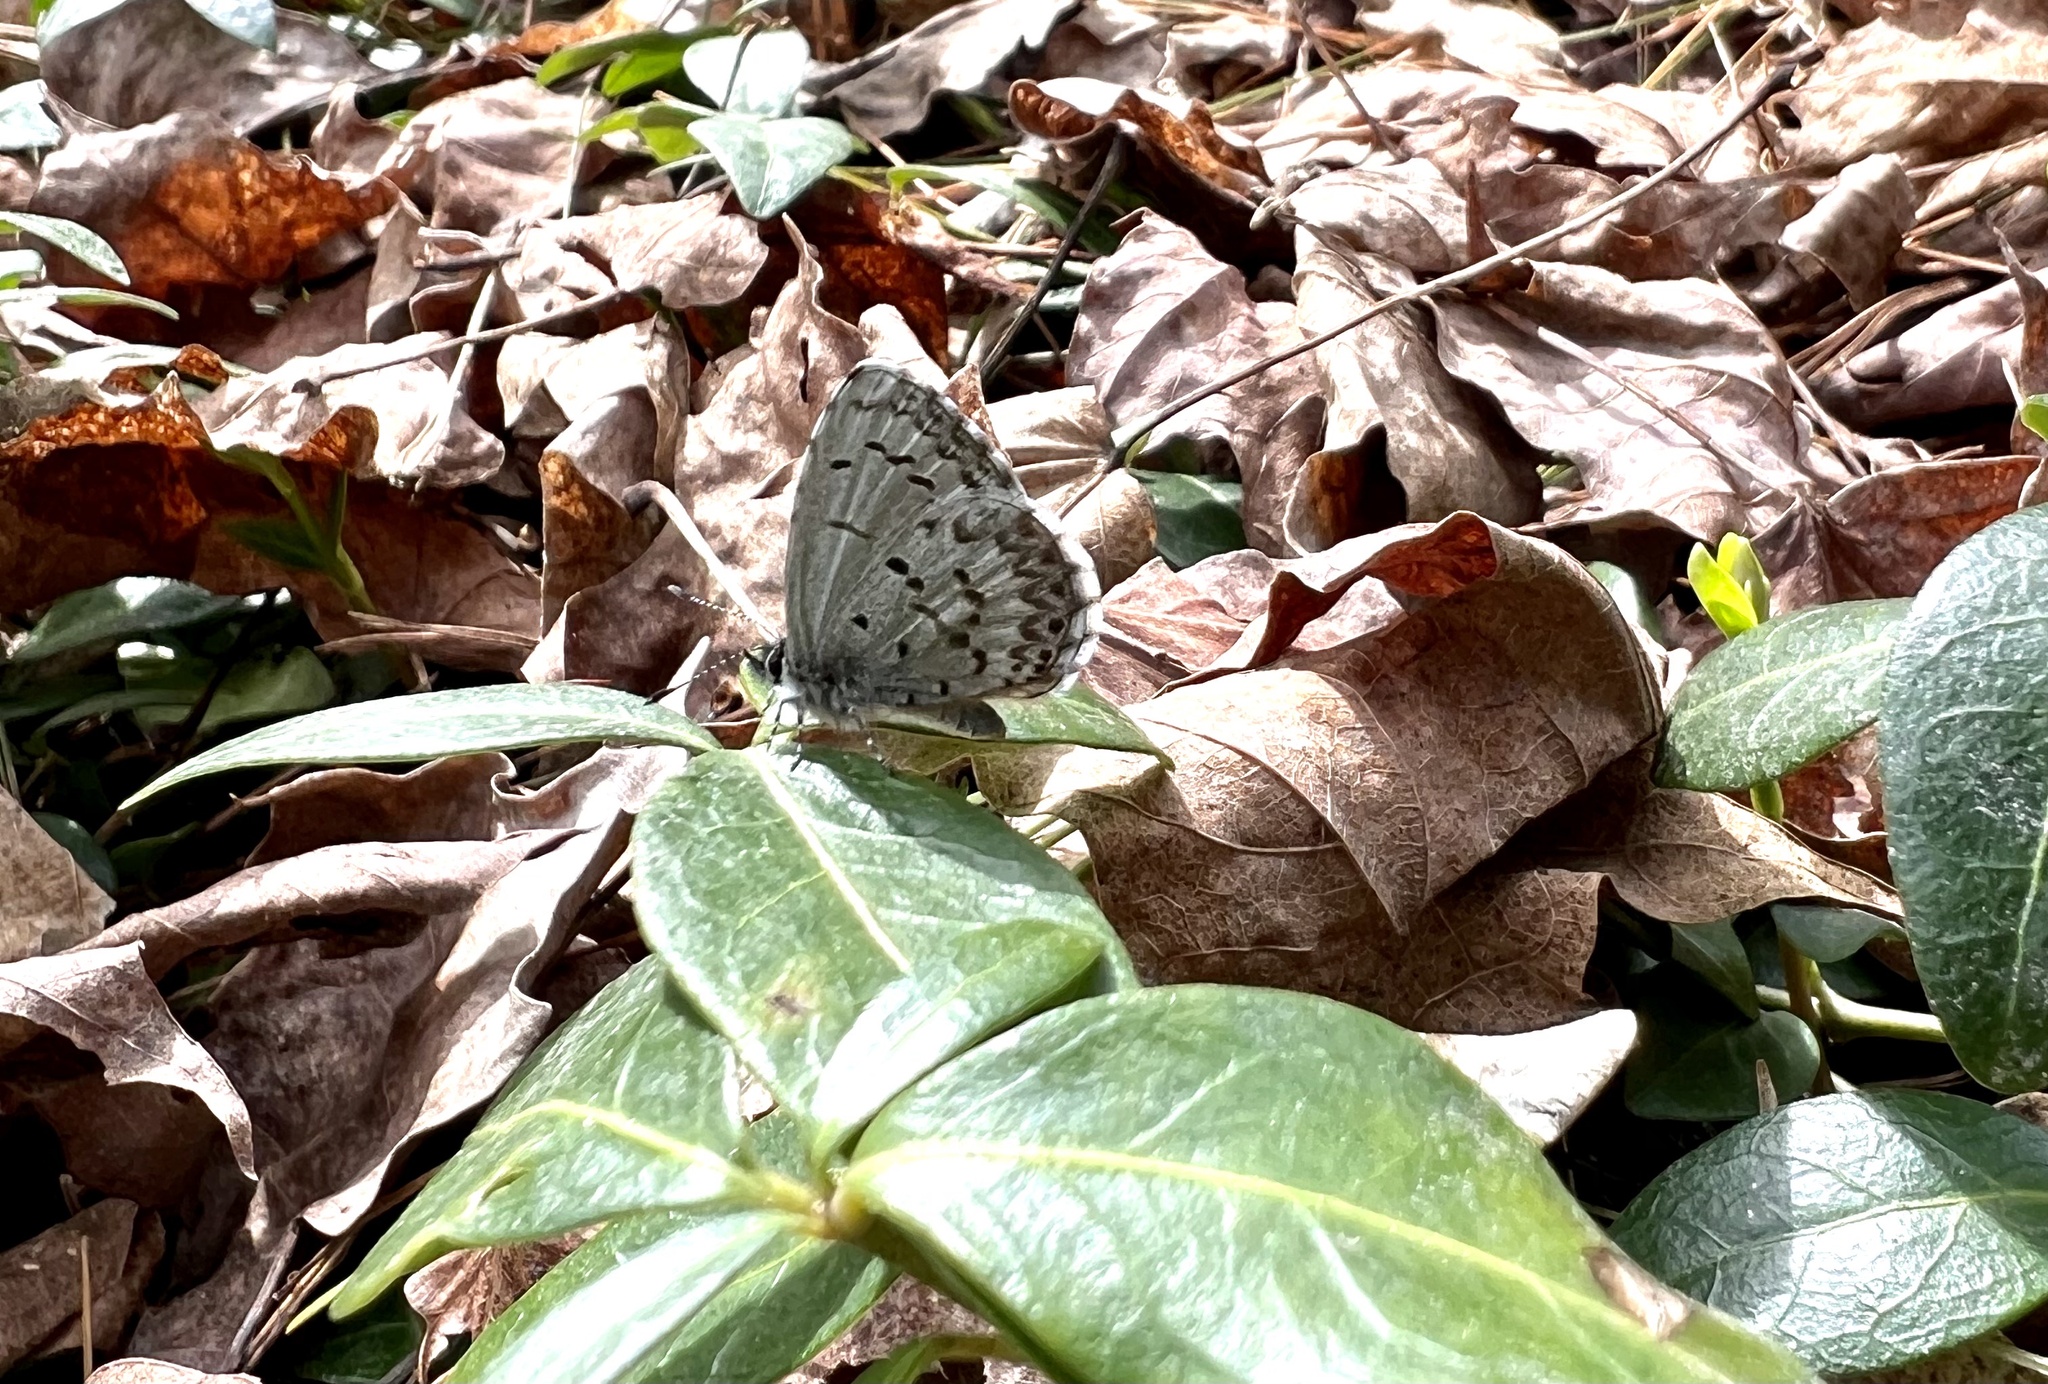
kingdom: Animalia
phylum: Arthropoda
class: Insecta
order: Lepidoptera
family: Lycaenidae
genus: Celastrina
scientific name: Celastrina lucia
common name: Lucia azure
